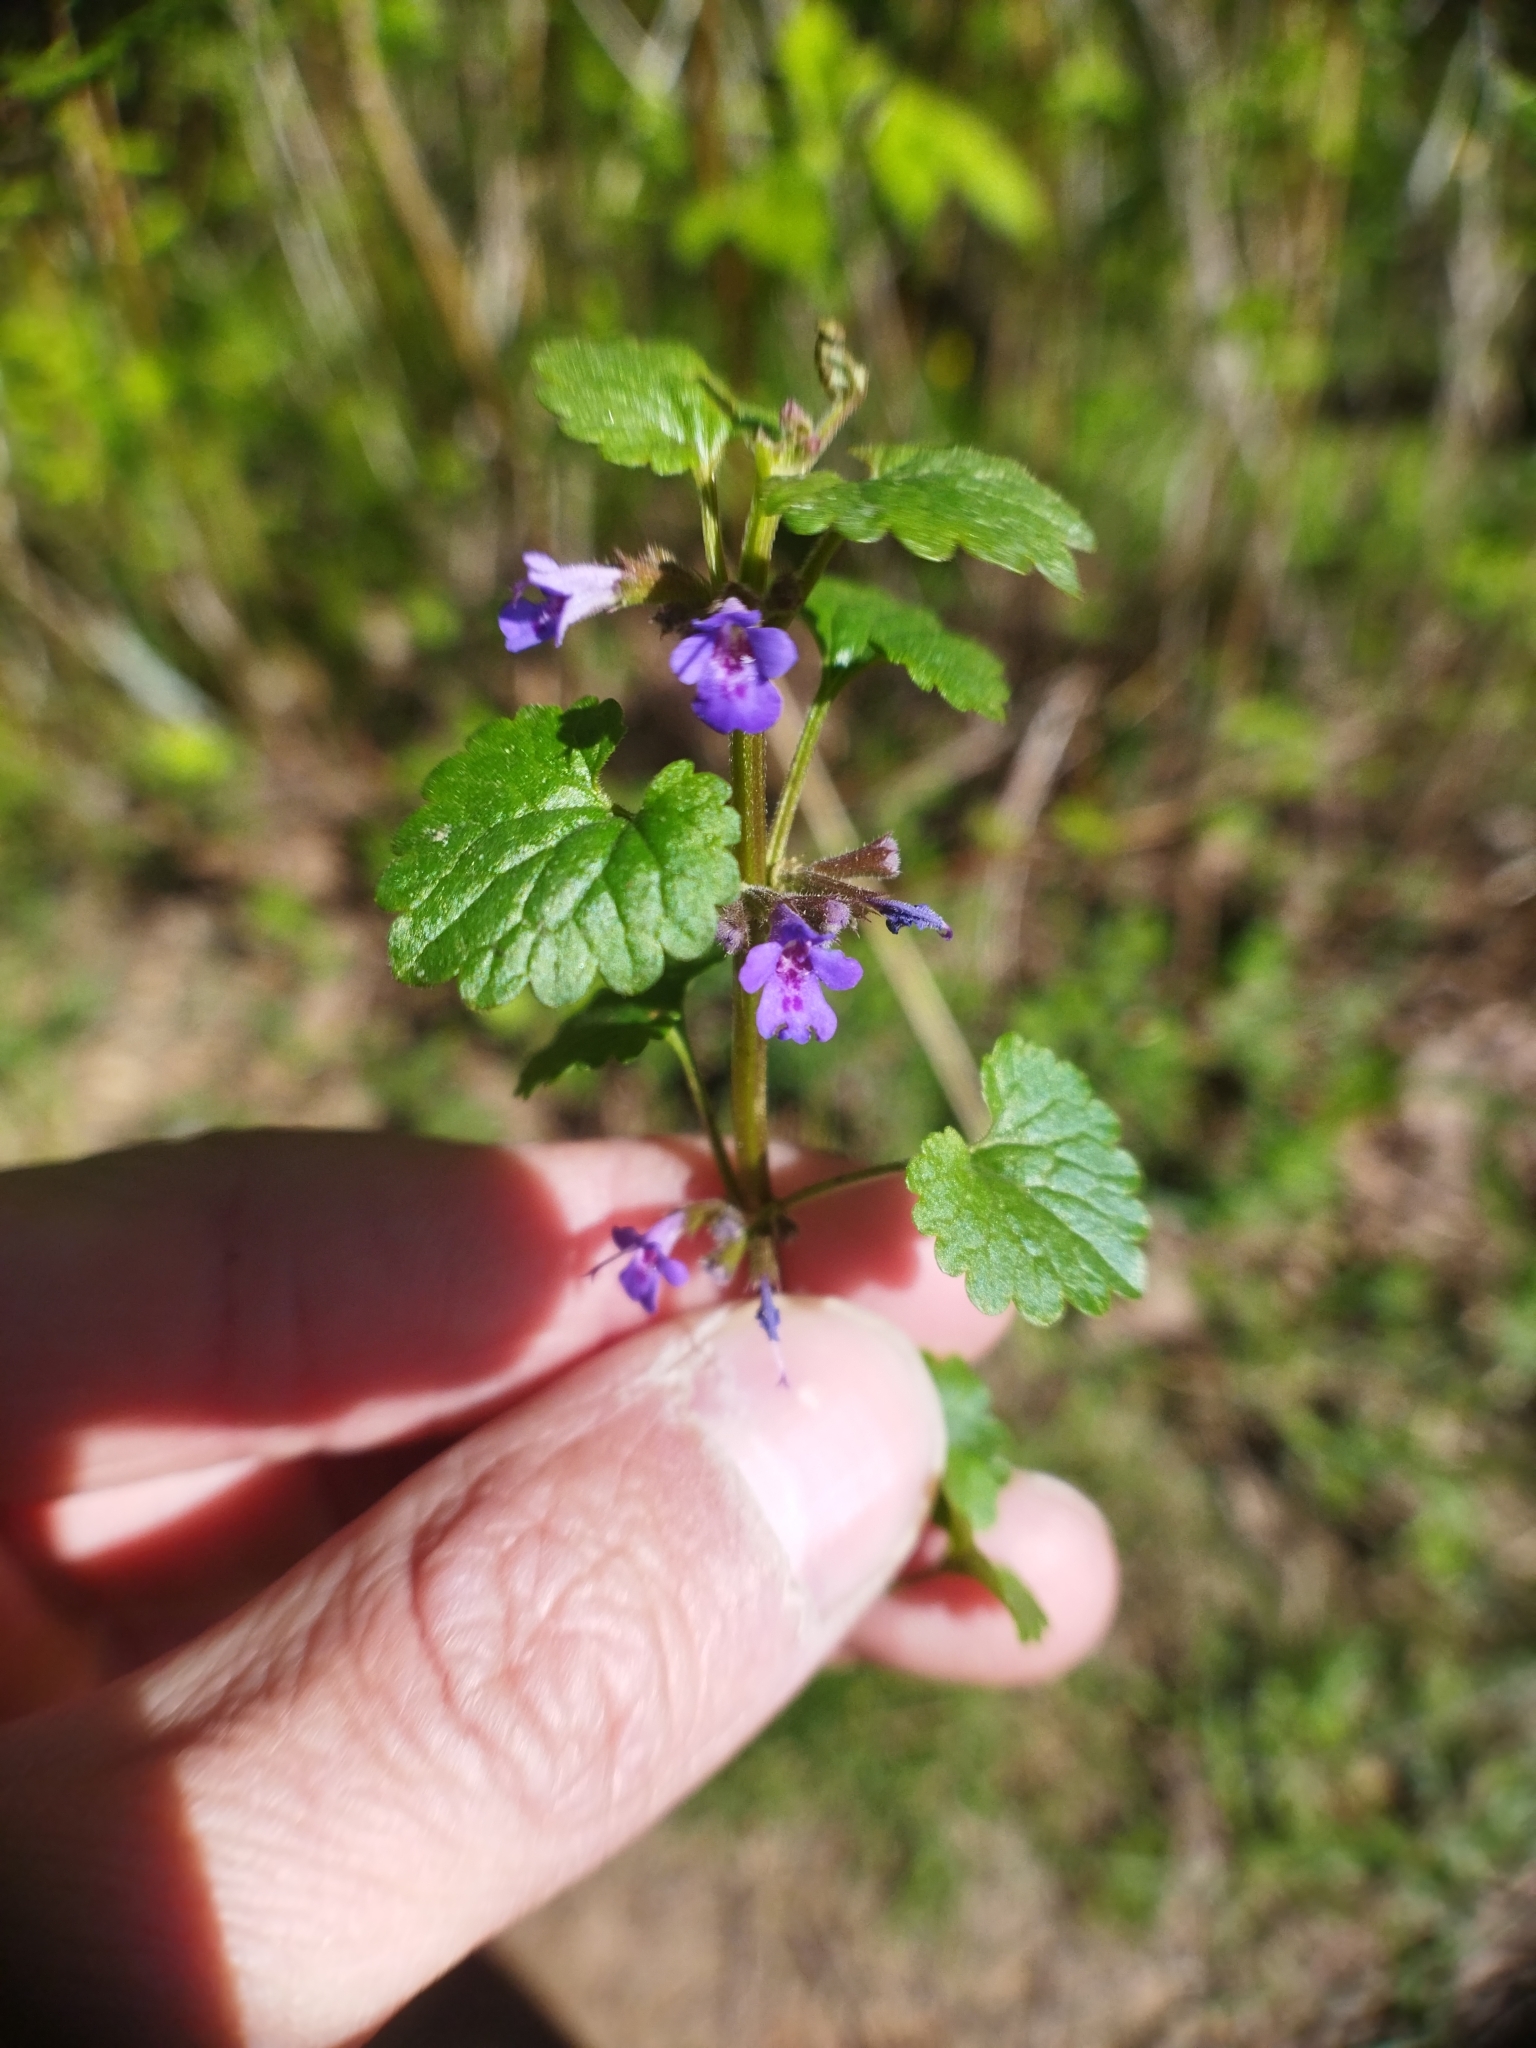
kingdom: Plantae
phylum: Tracheophyta
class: Magnoliopsida
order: Lamiales
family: Lamiaceae
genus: Glechoma
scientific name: Glechoma hederacea
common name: Ground ivy
